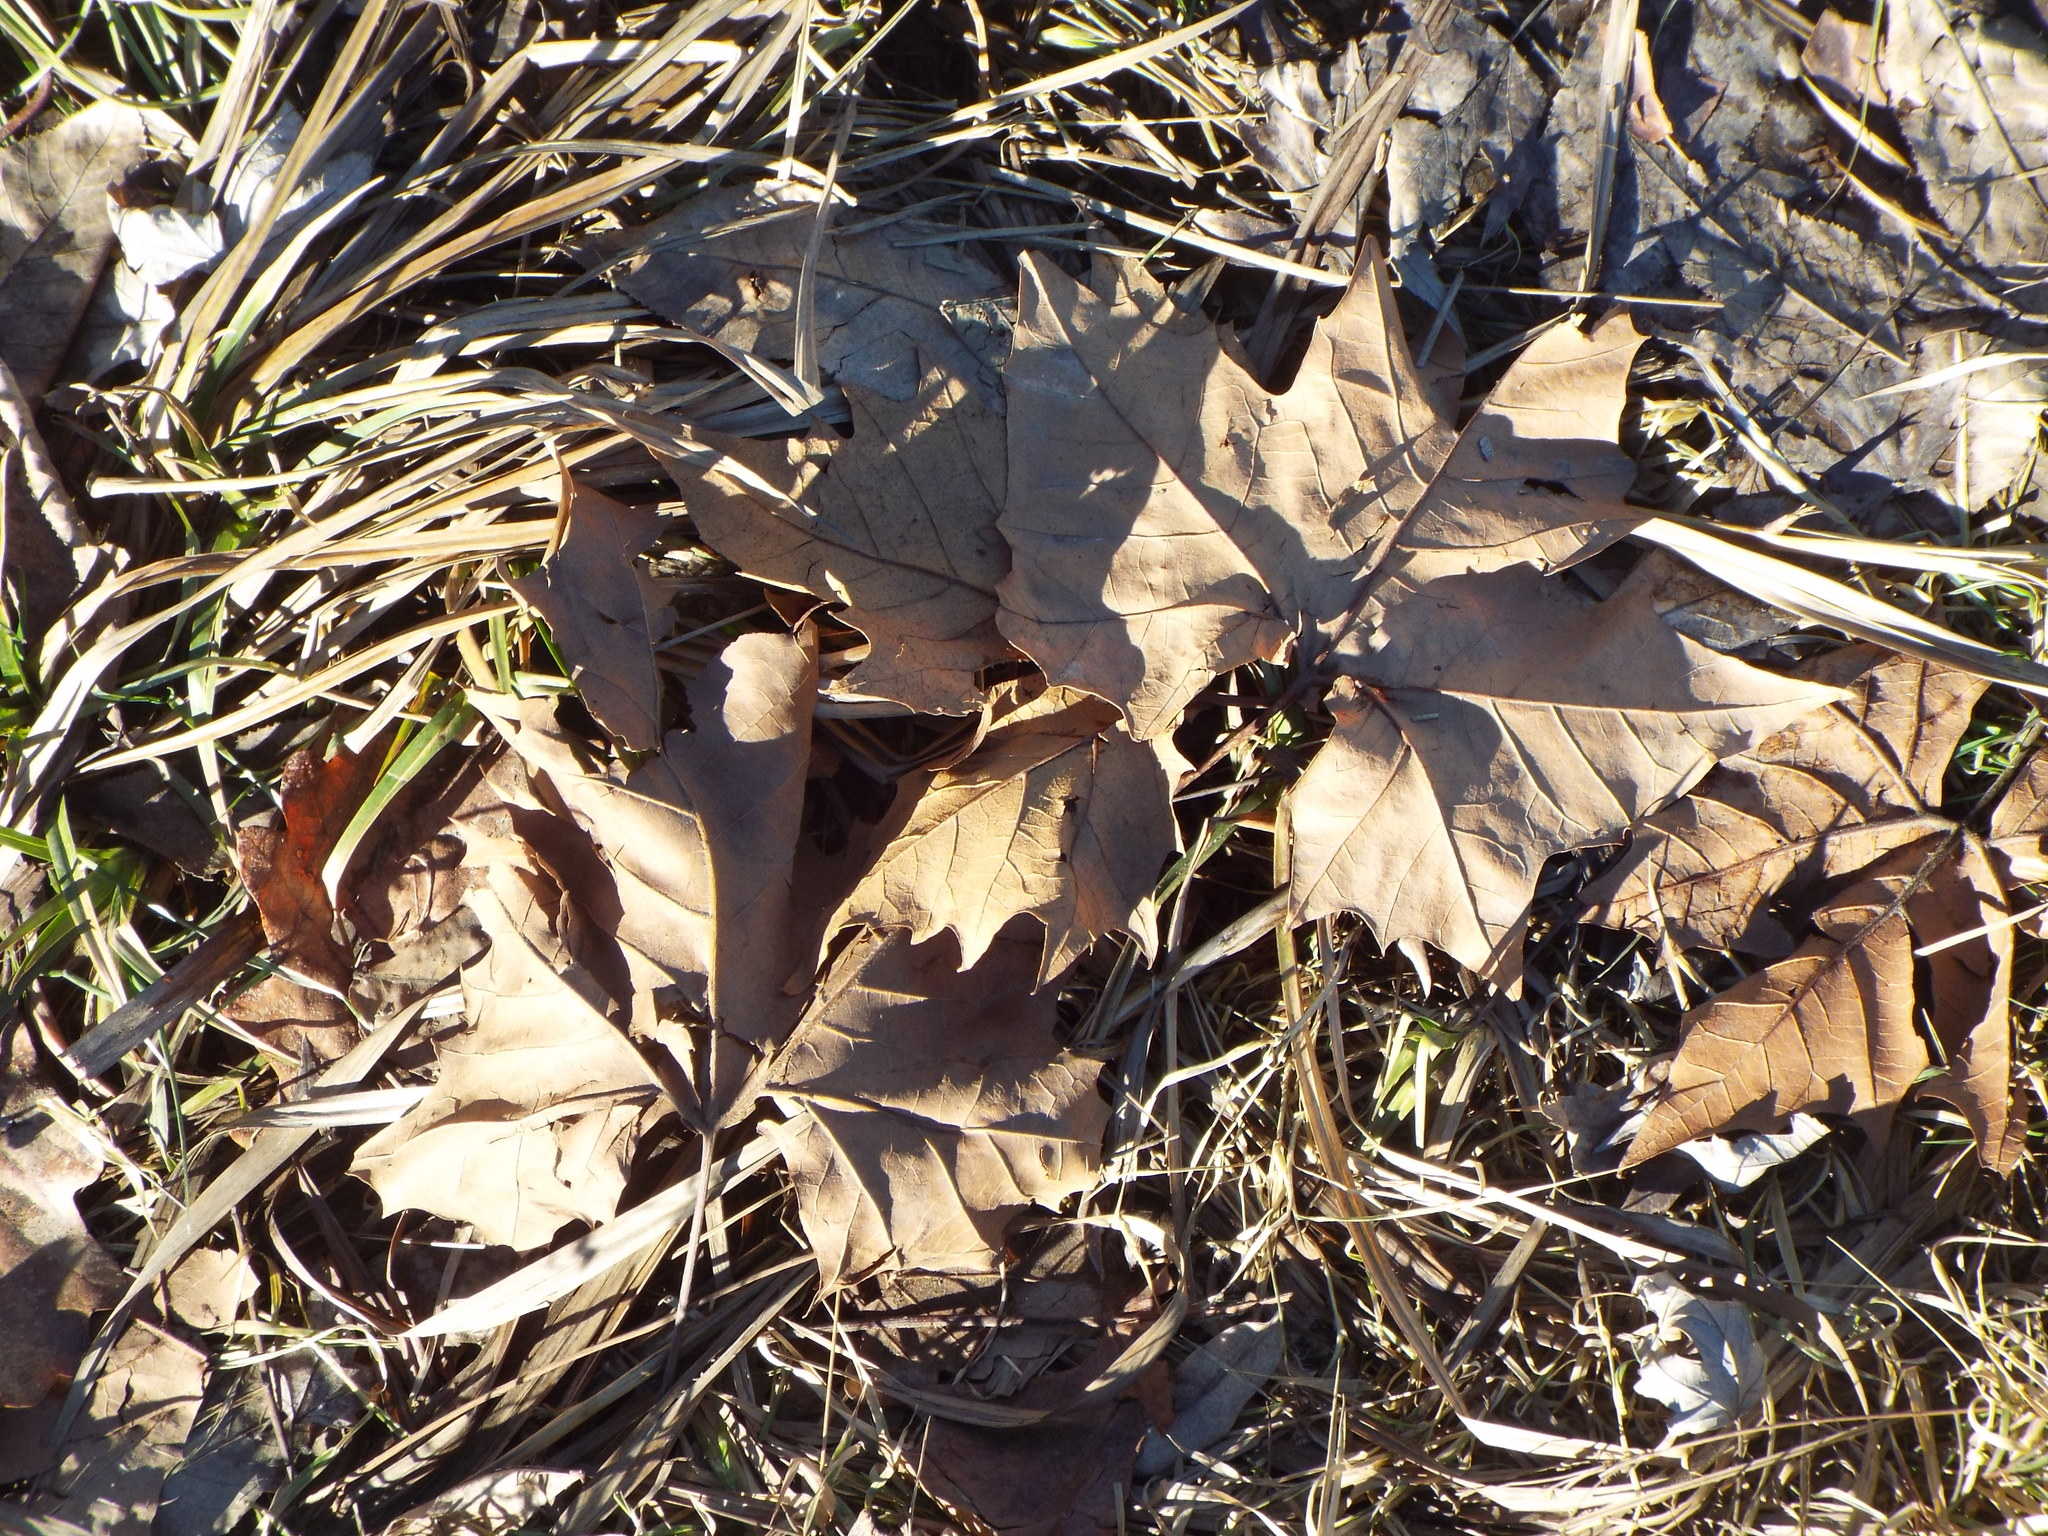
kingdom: Plantae
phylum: Tracheophyta
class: Magnoliopsida
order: Proteales
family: Platanaceae
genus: Platanus
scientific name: Platanus occidentalis
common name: American sycamore
